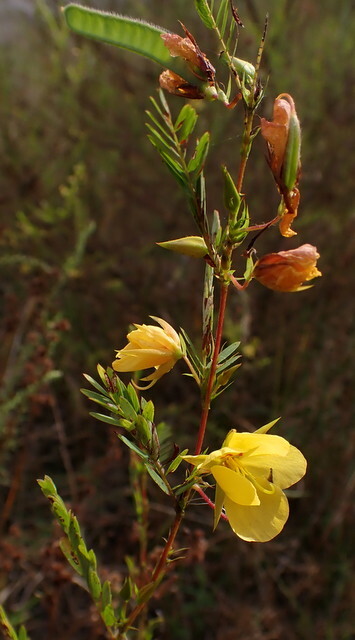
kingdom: Plantae
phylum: Tracheophyta
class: Magnoliopsida
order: Fabales
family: Fabaceae
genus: Chamaecrista
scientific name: Chamaecrista fasciculata
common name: Golden cassia
